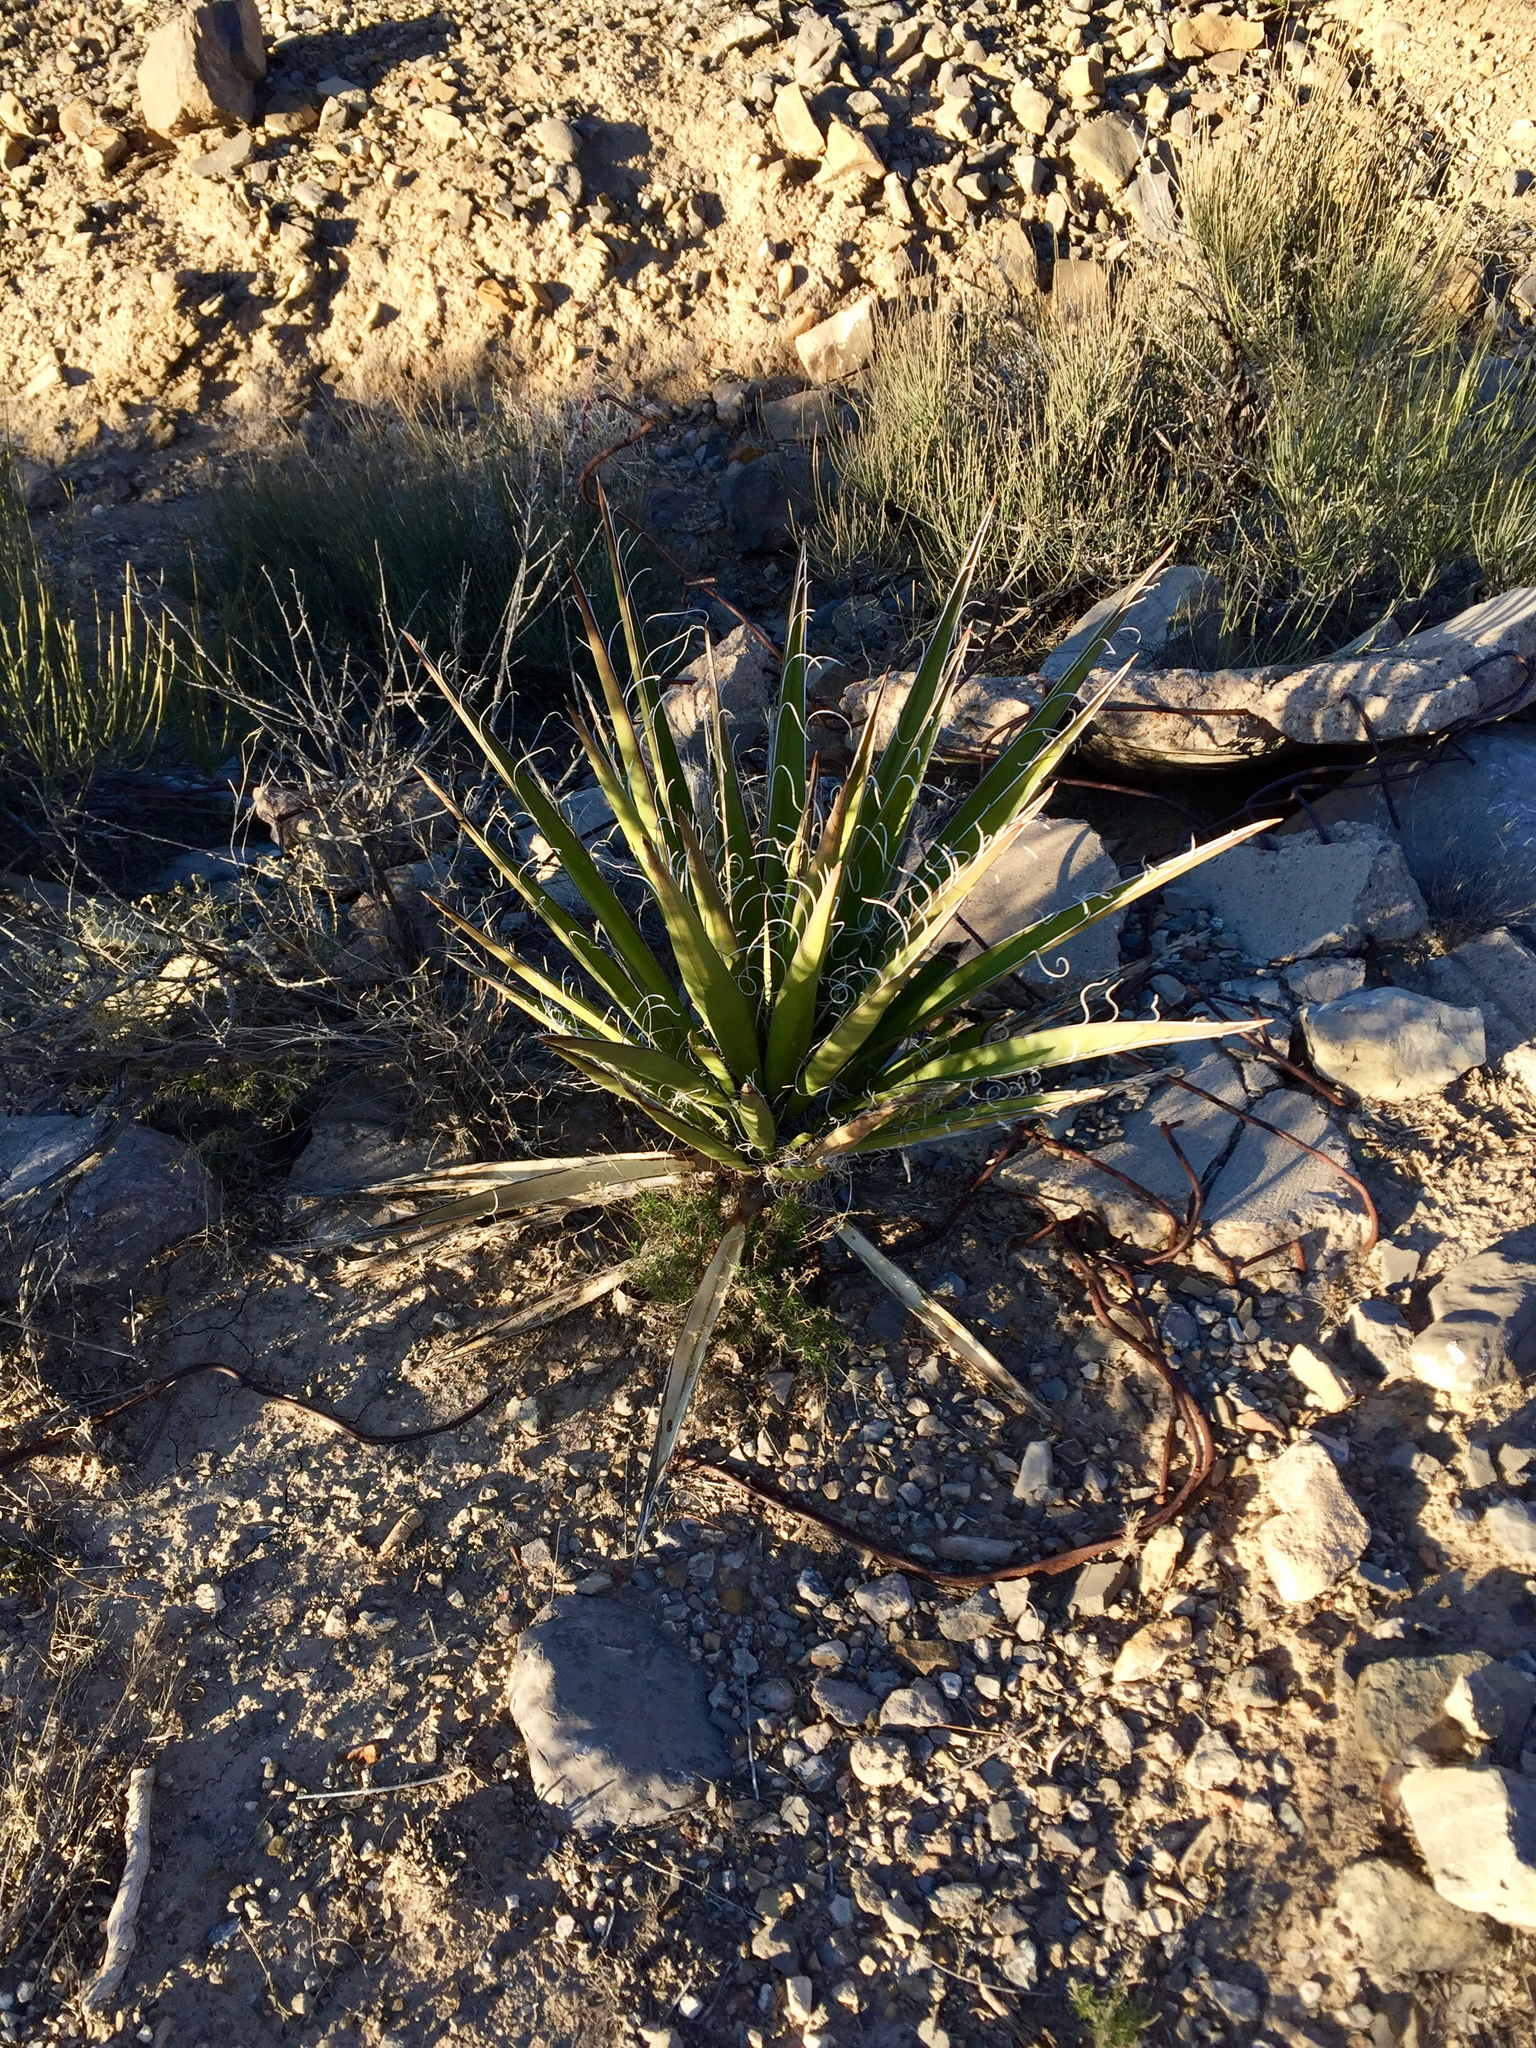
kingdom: Plantae
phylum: Tracheophyta
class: Liliopsida
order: Asparagales
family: Asparagaceae
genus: Yucca
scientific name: Yucca treculiana
